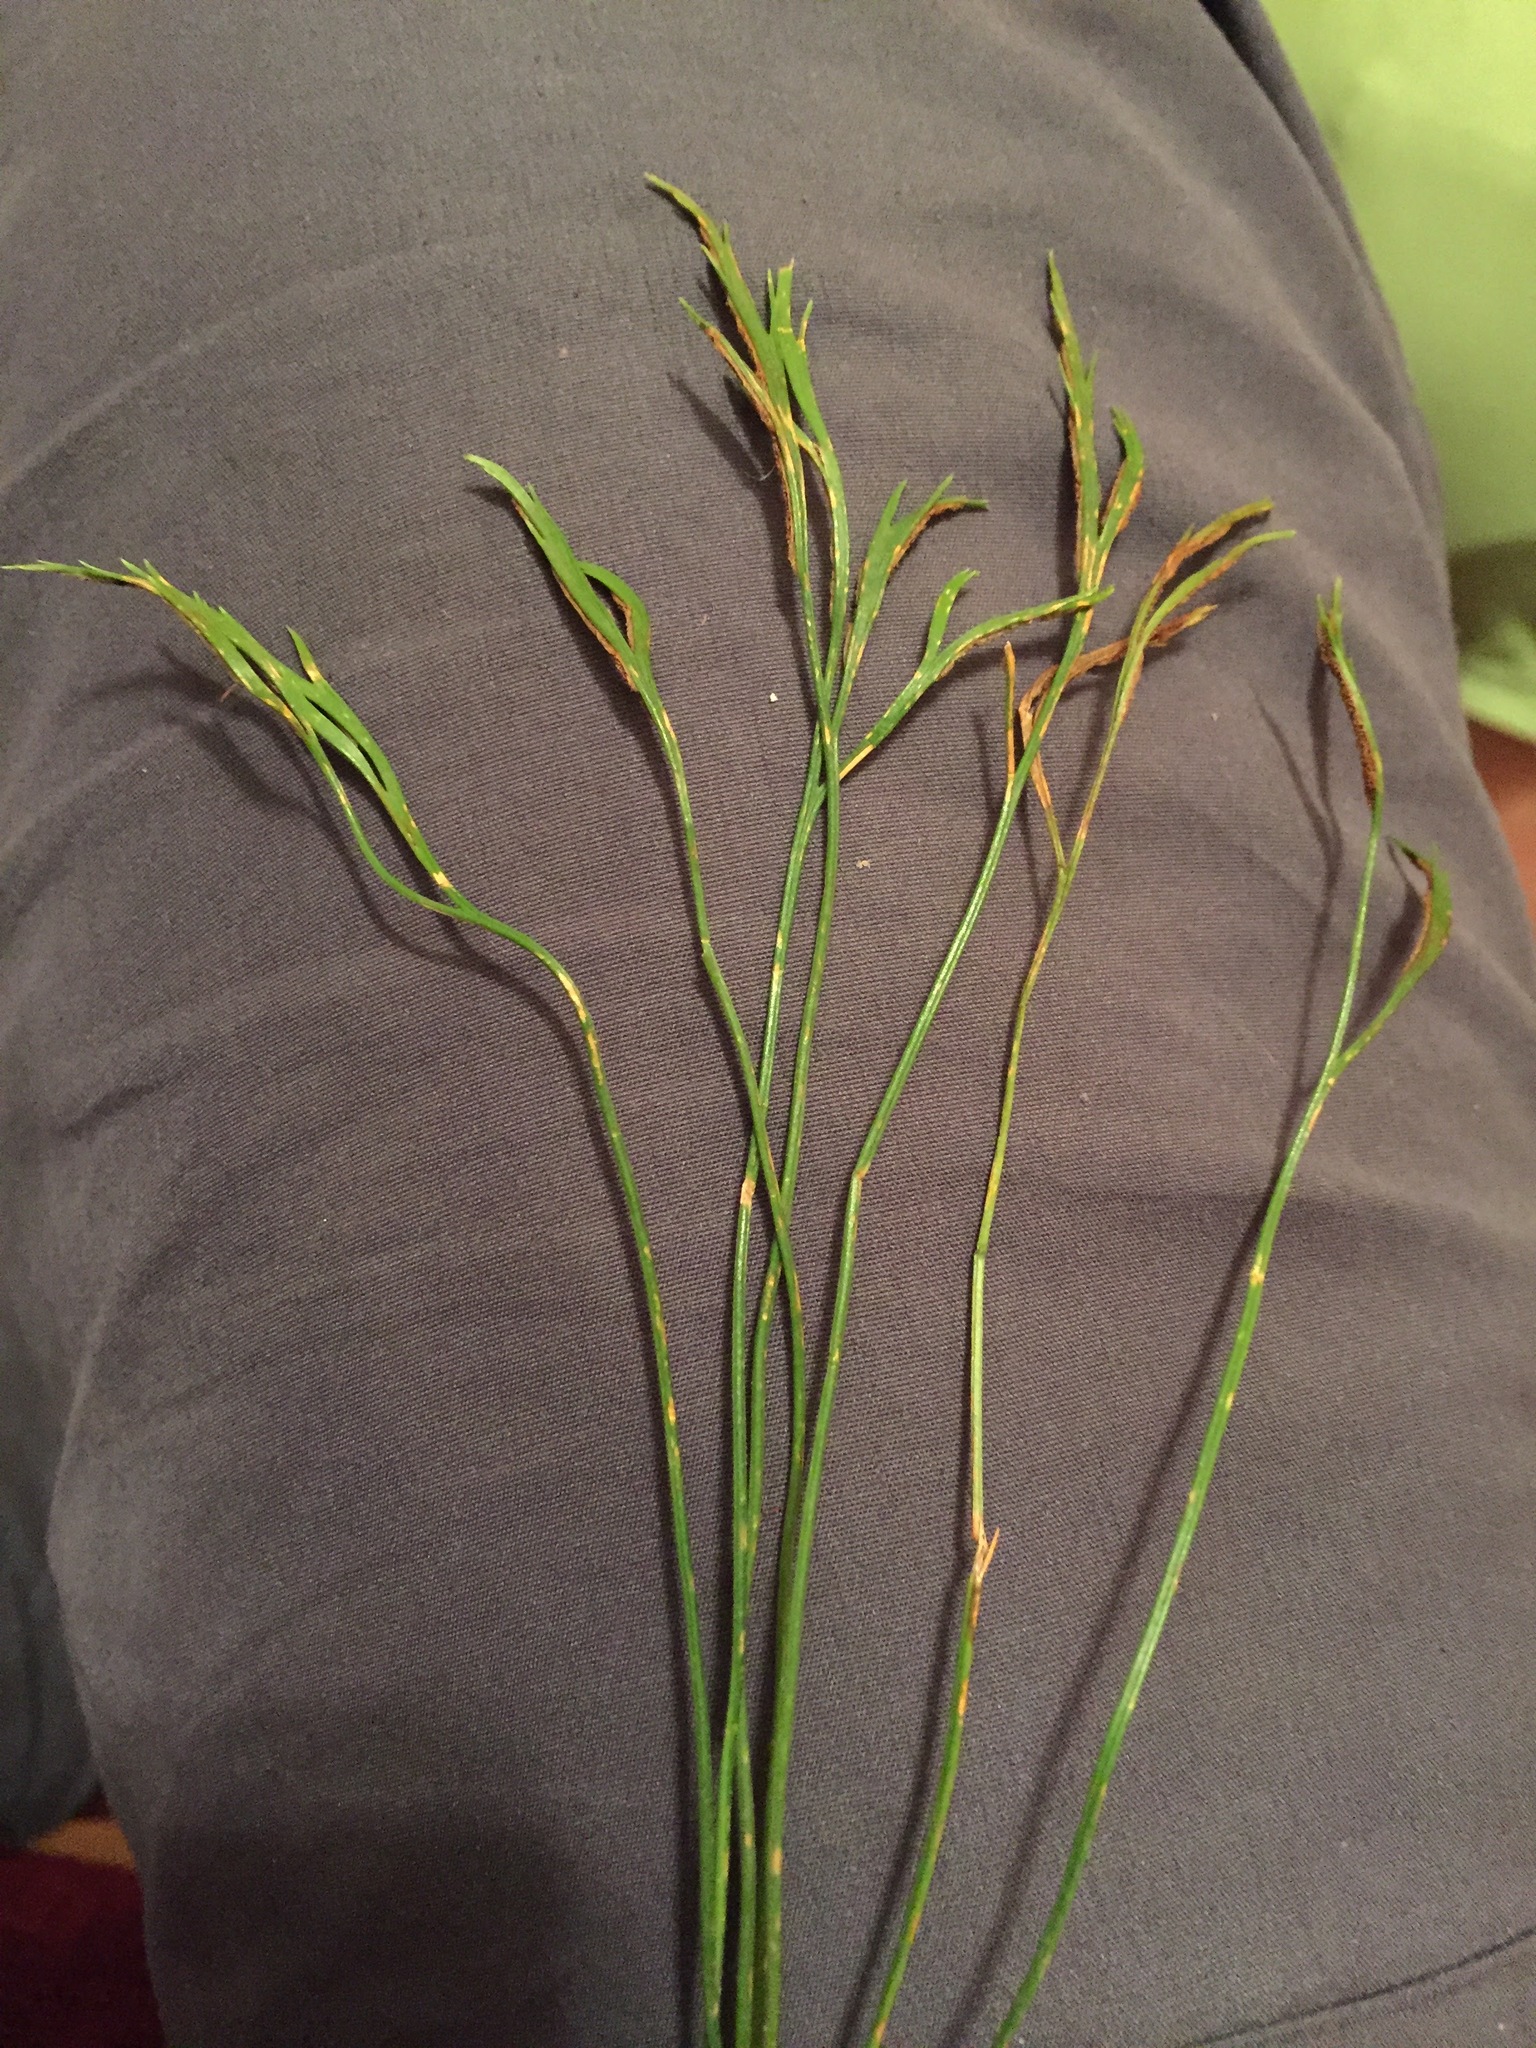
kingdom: Plantae
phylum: Tracheophyta
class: Polypodiopsida
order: Polypodiales
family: Aspleniaceae
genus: Asplenium
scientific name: Asplenium septentrionale
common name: Forked spleenwort
